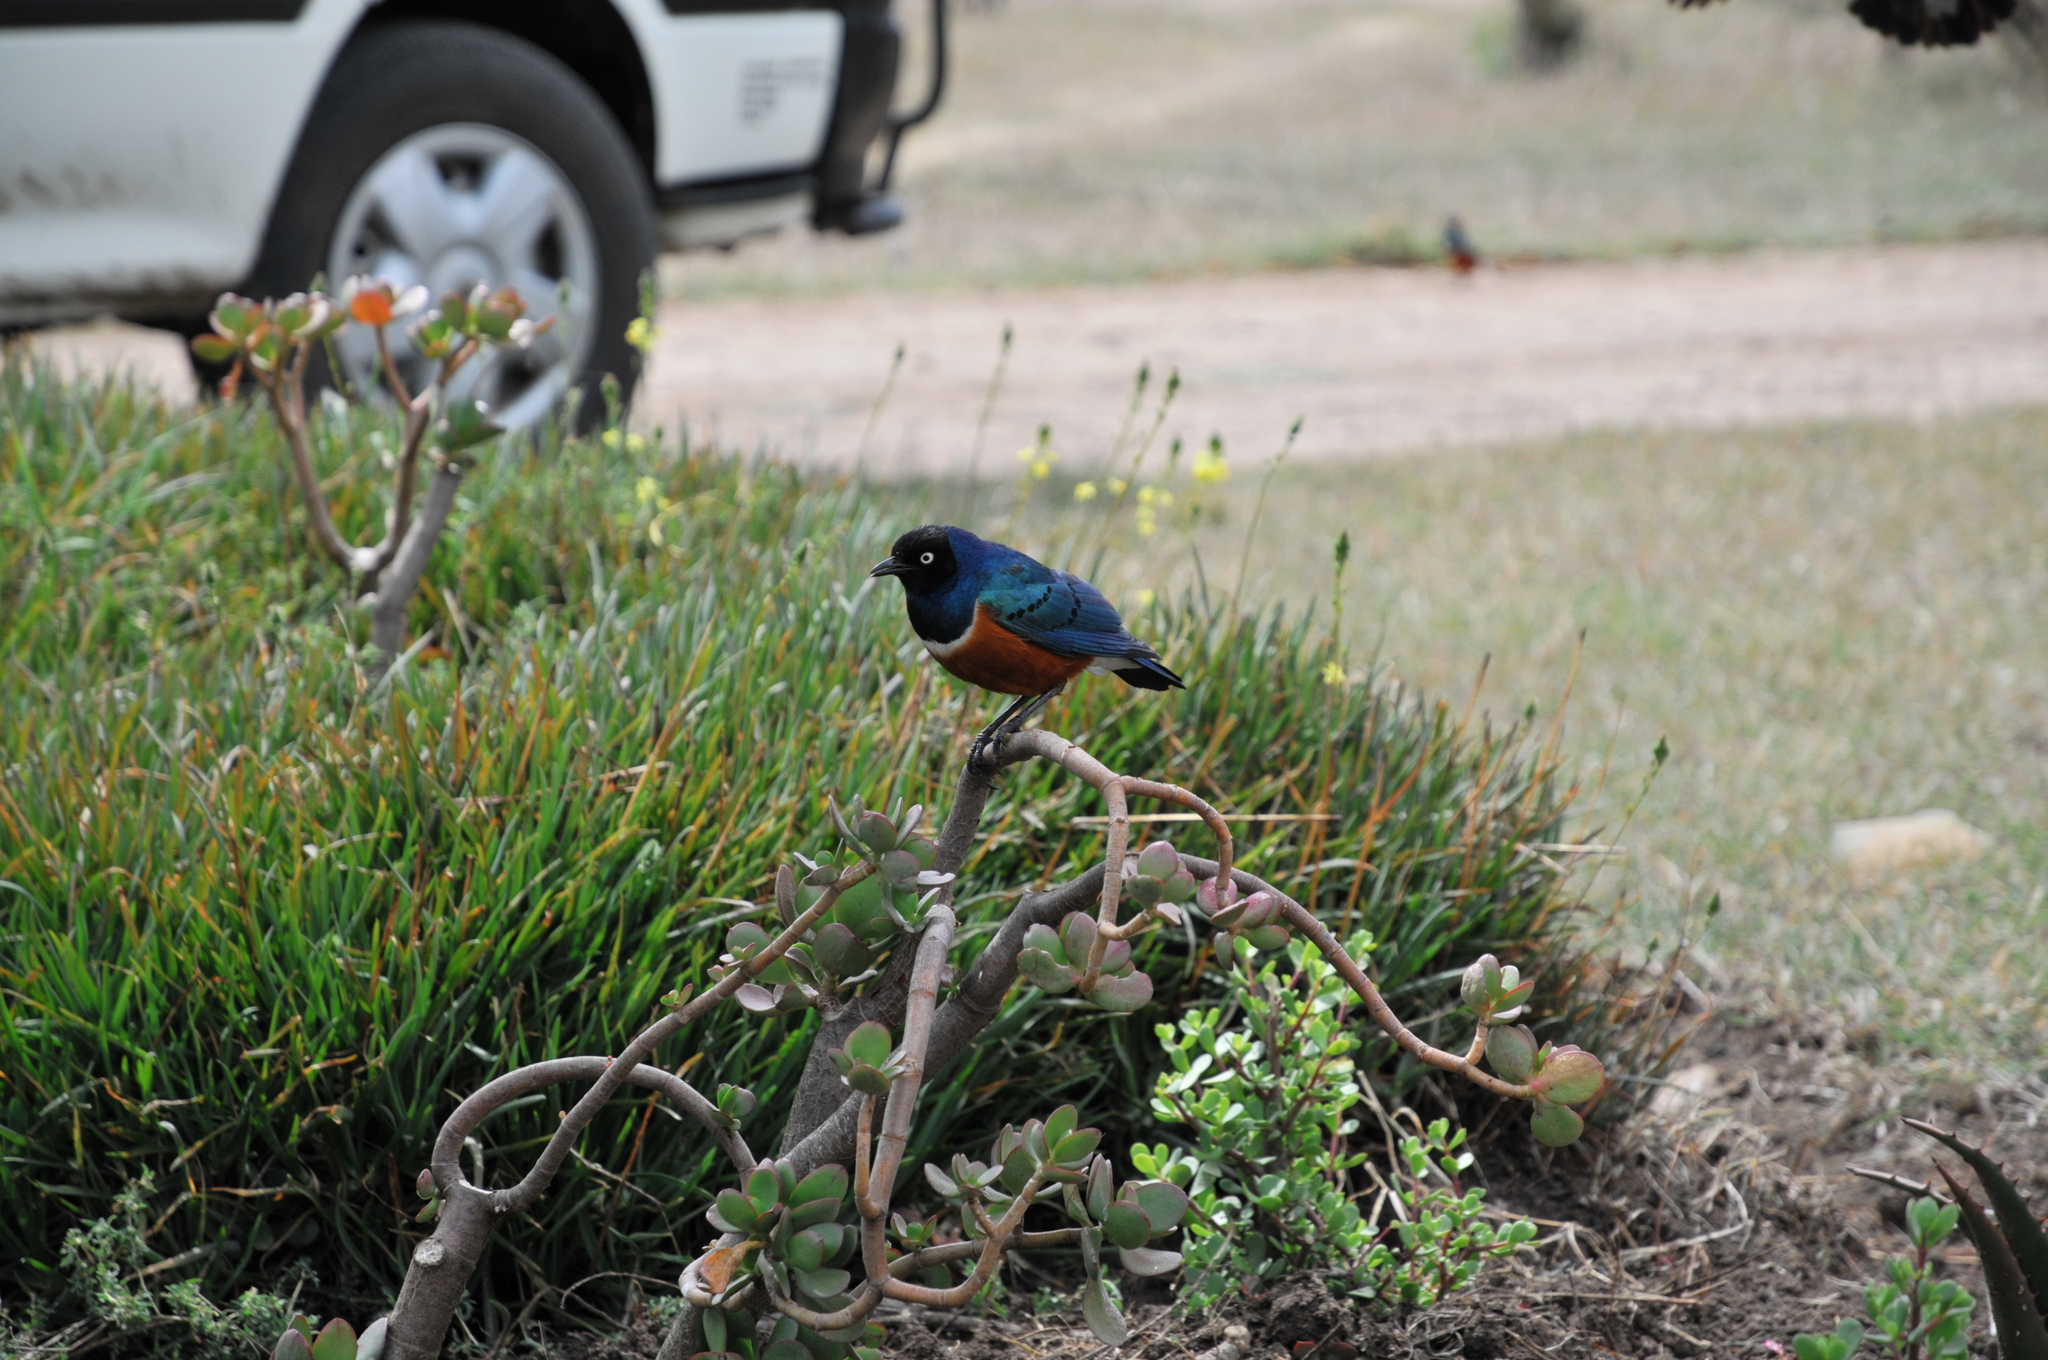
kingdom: Animalia
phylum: Chordata
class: Aves
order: Passeriformes
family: Sturnidae
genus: Lamprotornis
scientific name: Lamprotornis superbus
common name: Superb starling
